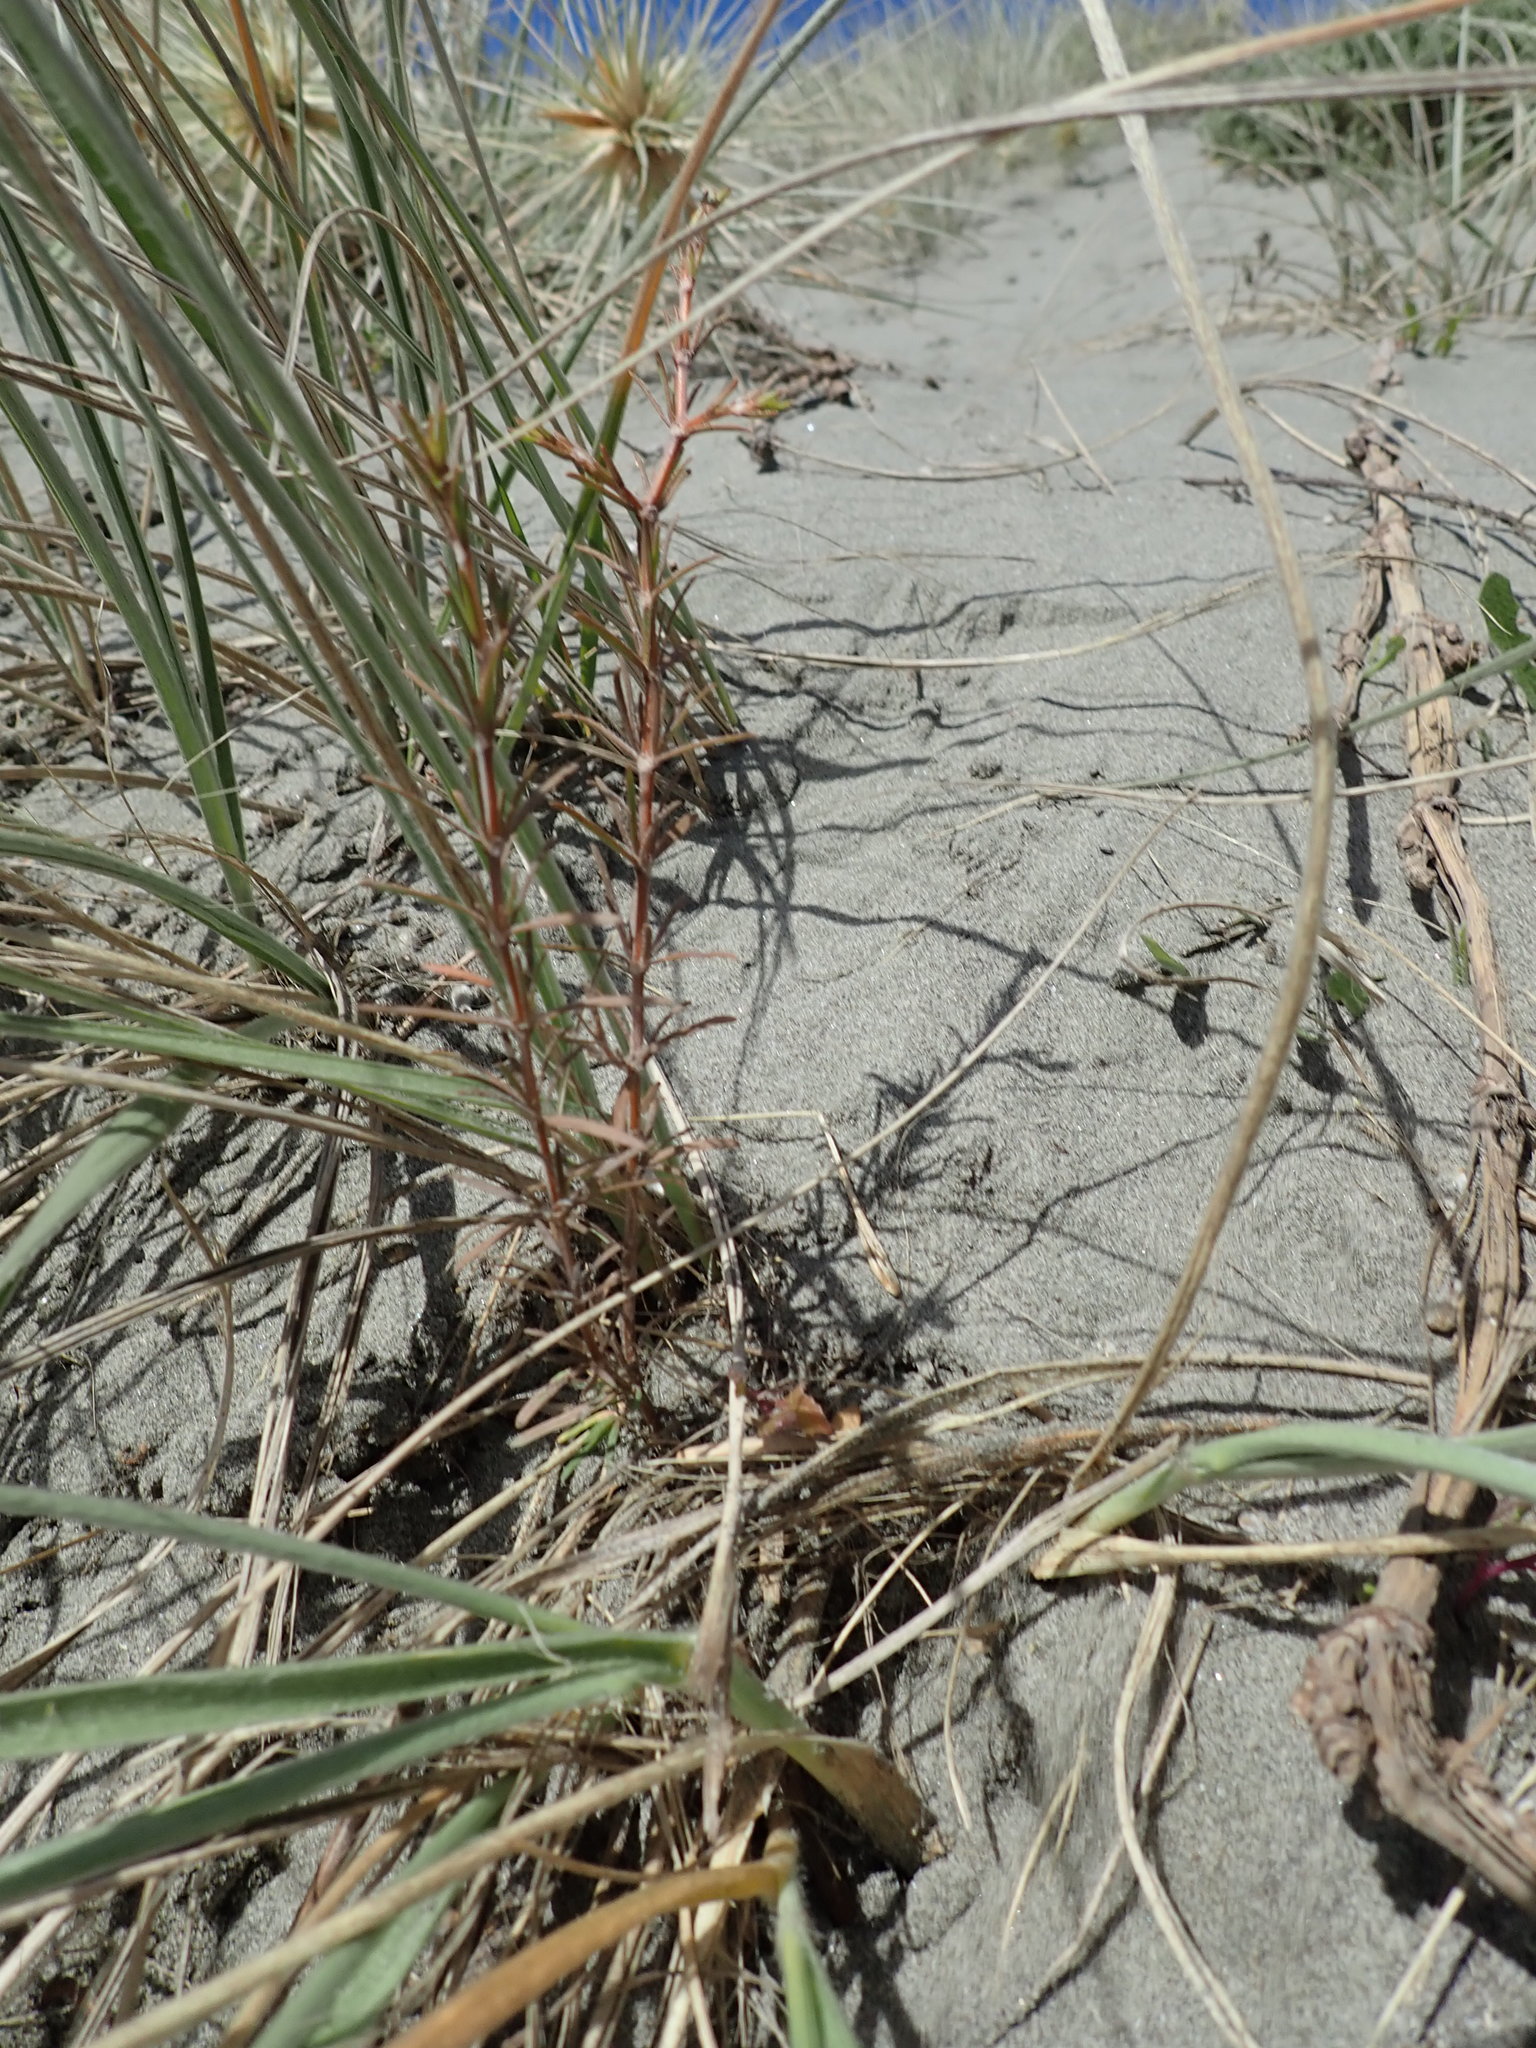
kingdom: Plantae
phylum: Tracheophyta
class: Magnoliopsida
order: Gentianales
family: Rubiaceae
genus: Coprosma
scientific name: Coprosma acerosa
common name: Sand coprosma
